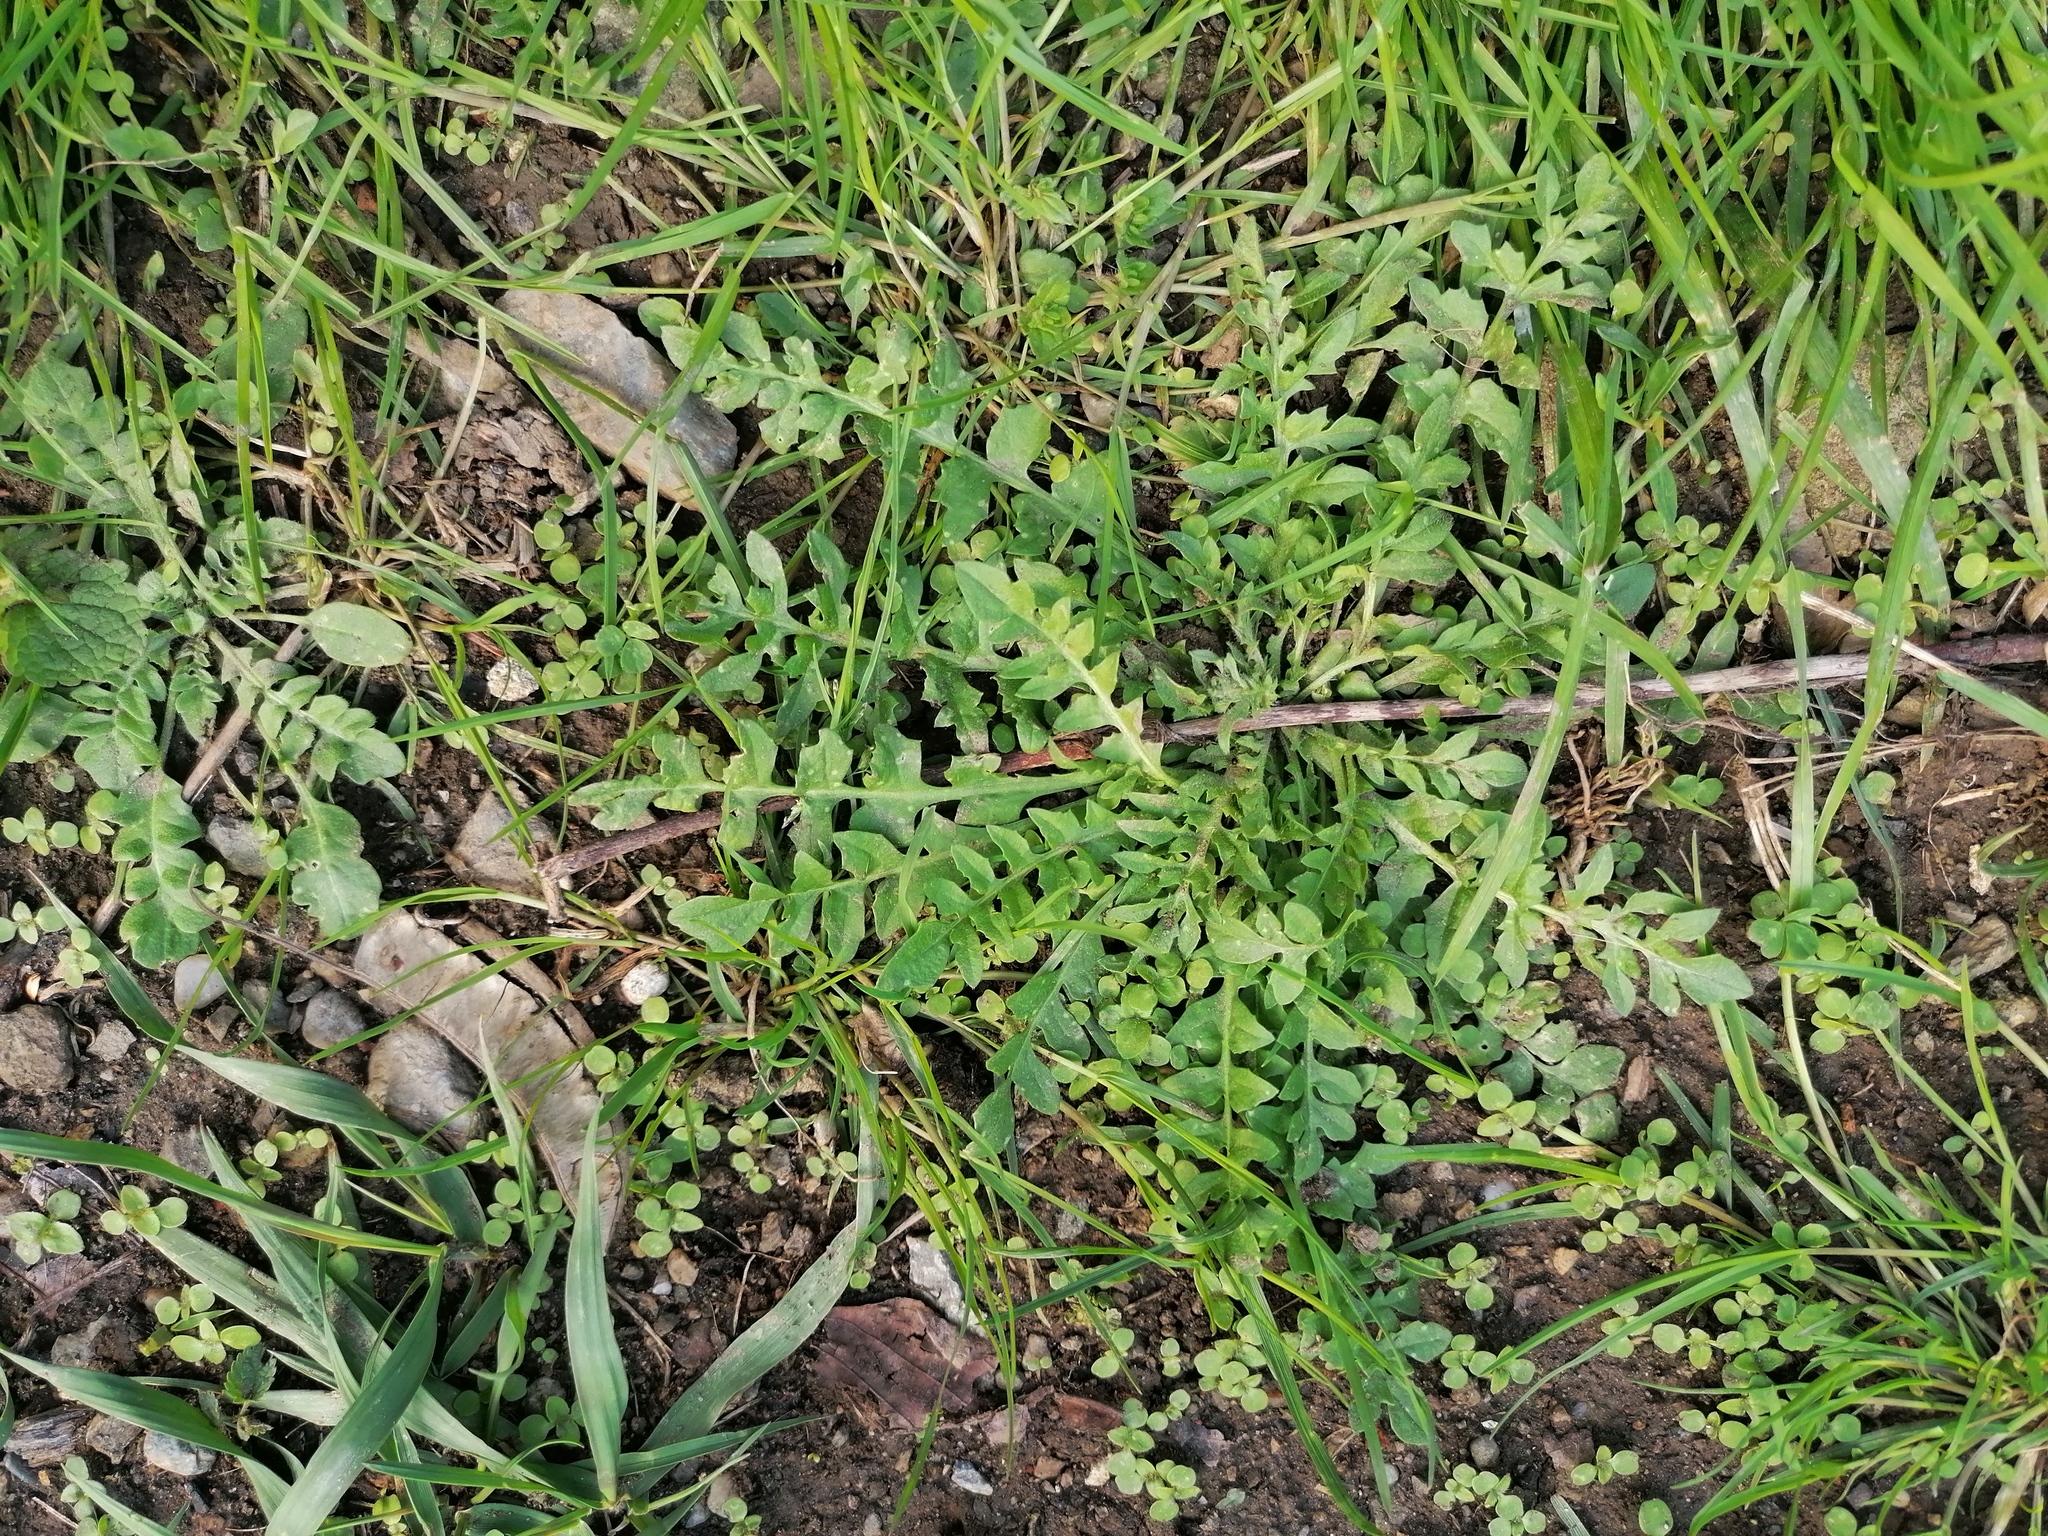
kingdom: Plantae
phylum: Tracheophyta
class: Magnoliopsida
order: Brassicales
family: Brassicaceae
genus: Capsella
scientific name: Capsella bursa-pastoris
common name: Shepherd's purse
